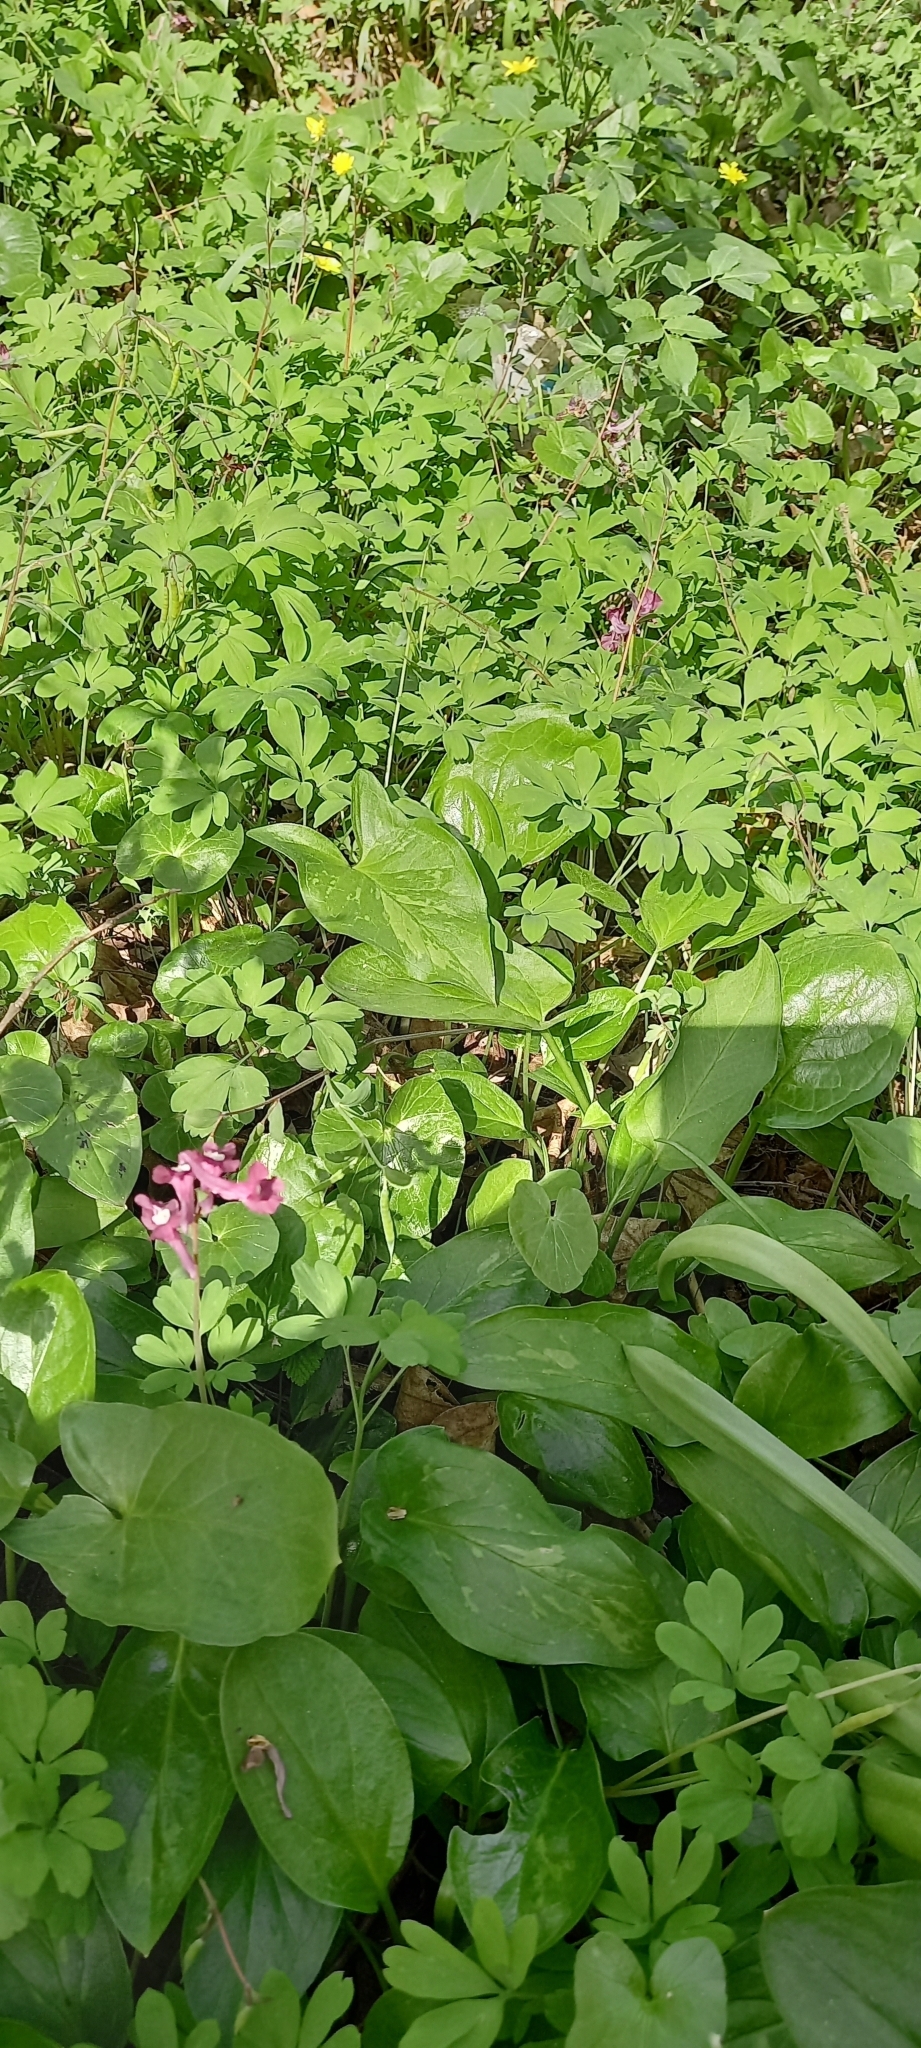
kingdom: Plantae
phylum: Tracheophyta
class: Magnoliopsida
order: Ranunculales
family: Papaveraceae
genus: Corydalis
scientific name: Corydalis caucasica
